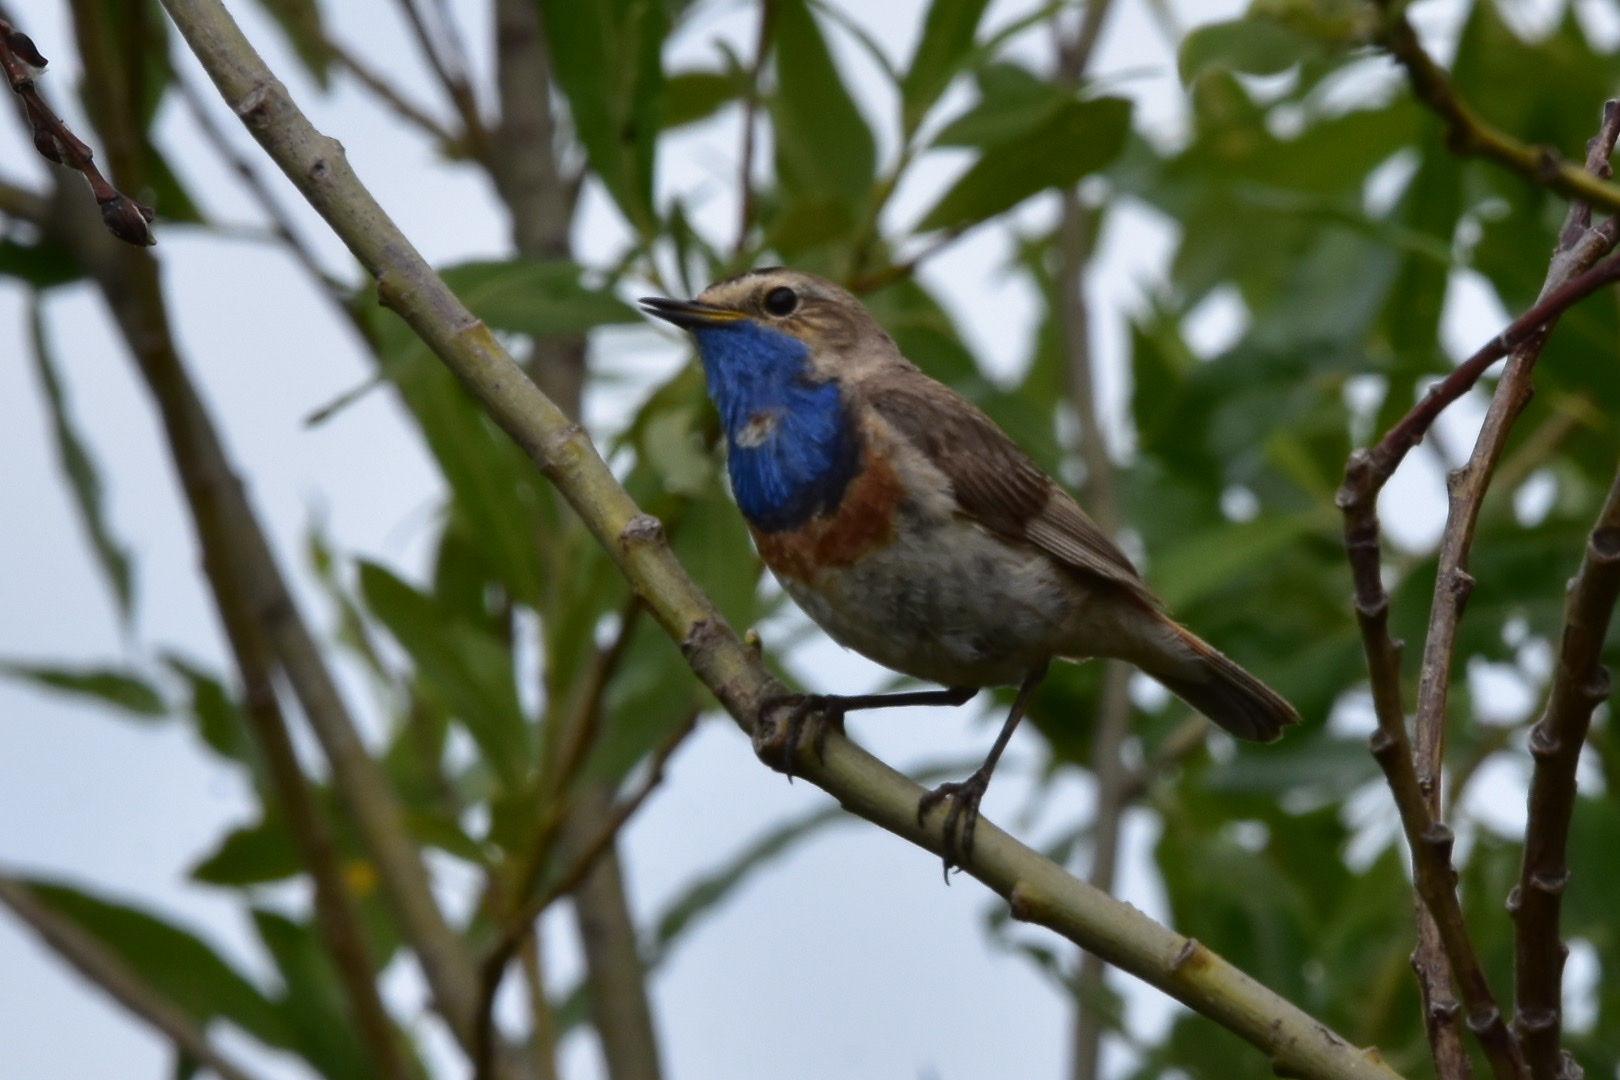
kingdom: Animalia
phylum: Chordata
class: Aves
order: Passeriformes
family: Muscicapidae
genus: Luscinia
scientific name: Luscinia svecica
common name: Bluethroat
